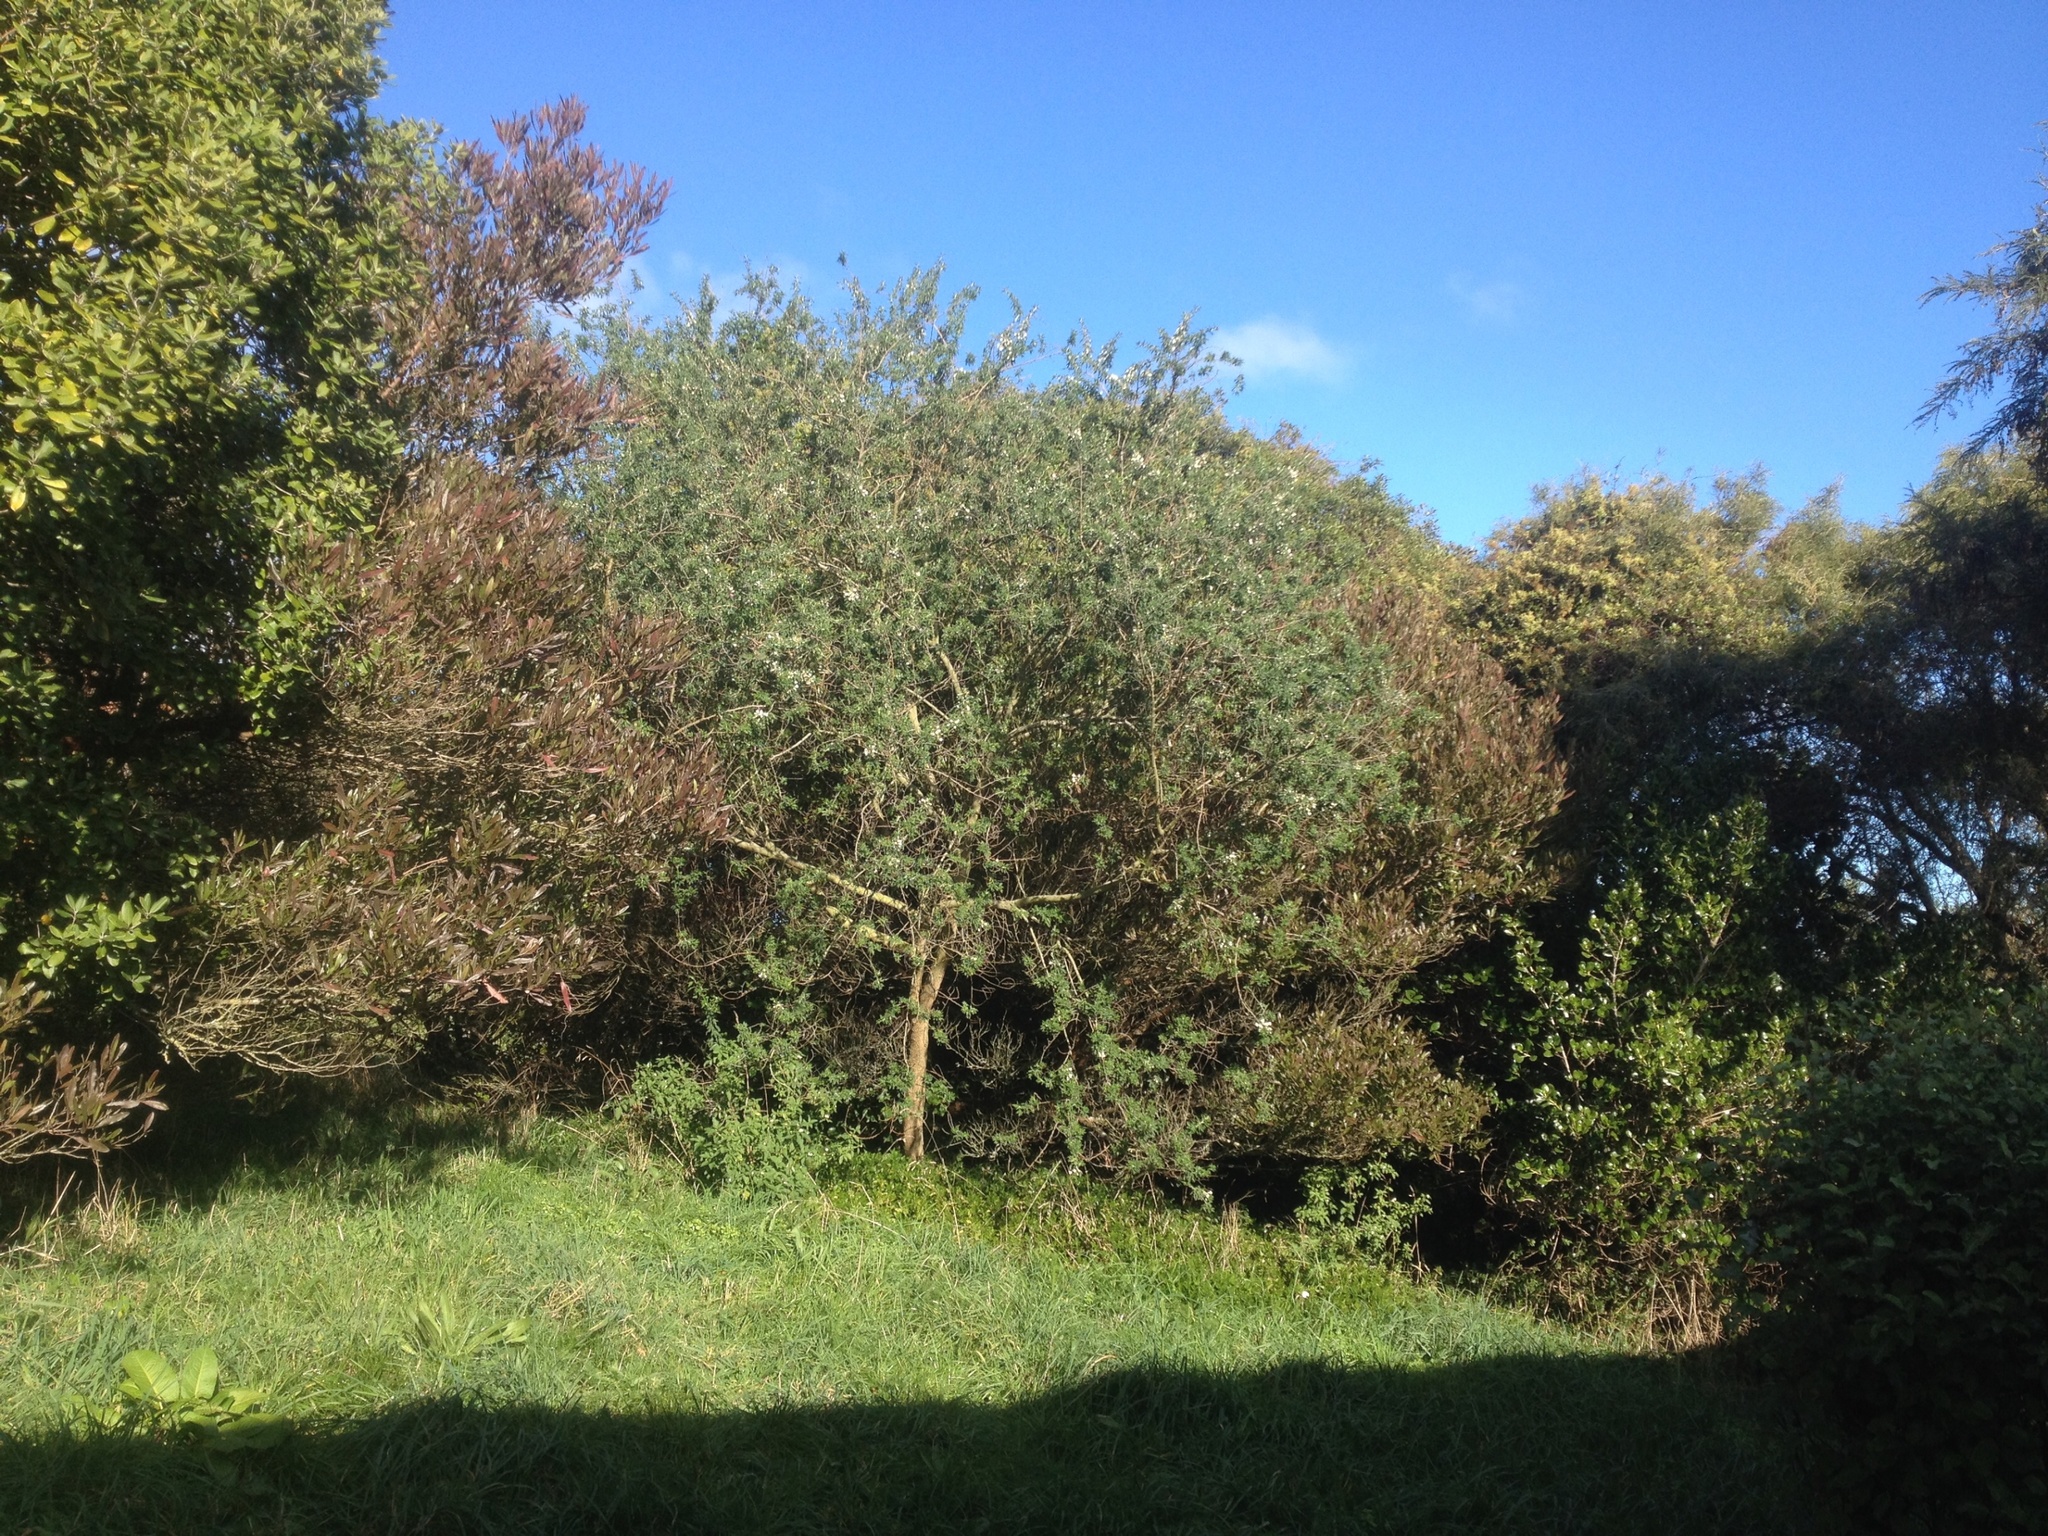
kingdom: Plantae
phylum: Tracheophyta
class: Magnoliopsida
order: Fabales
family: Fabaceae
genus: Chamaecytisus
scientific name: Chamaecytisus prolifer
